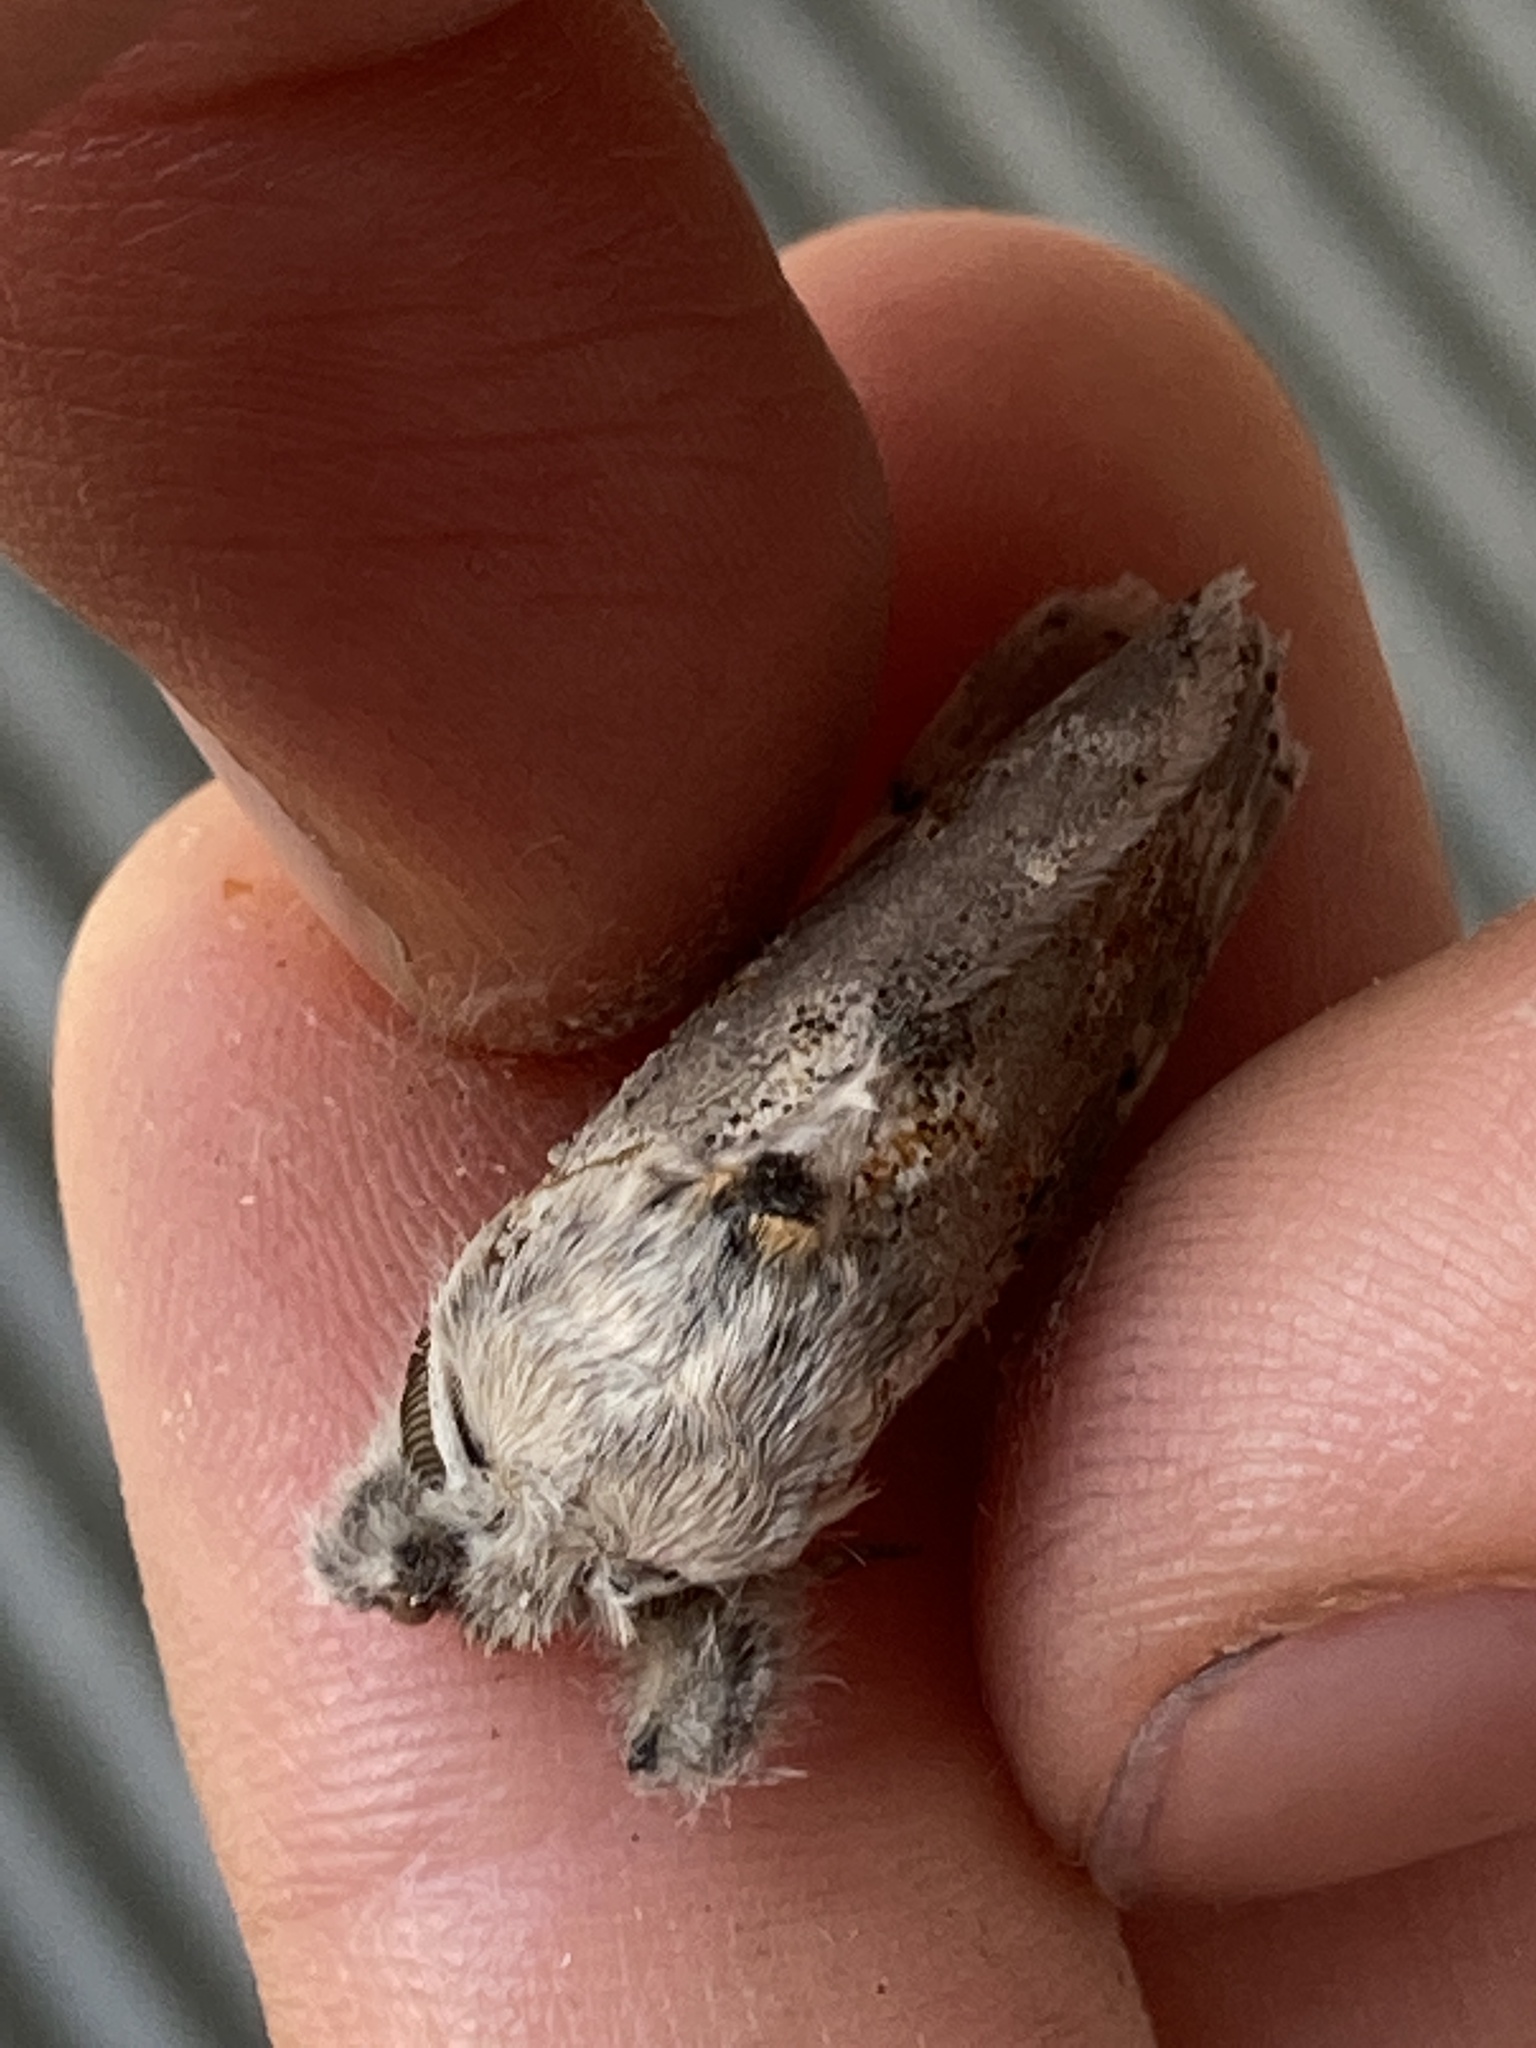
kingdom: Animalia
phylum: Arthropoda
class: Insecta
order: Lepidoptera
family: Erebidae
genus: Calliteara
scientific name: Calliteara Dicallomera fascelina
